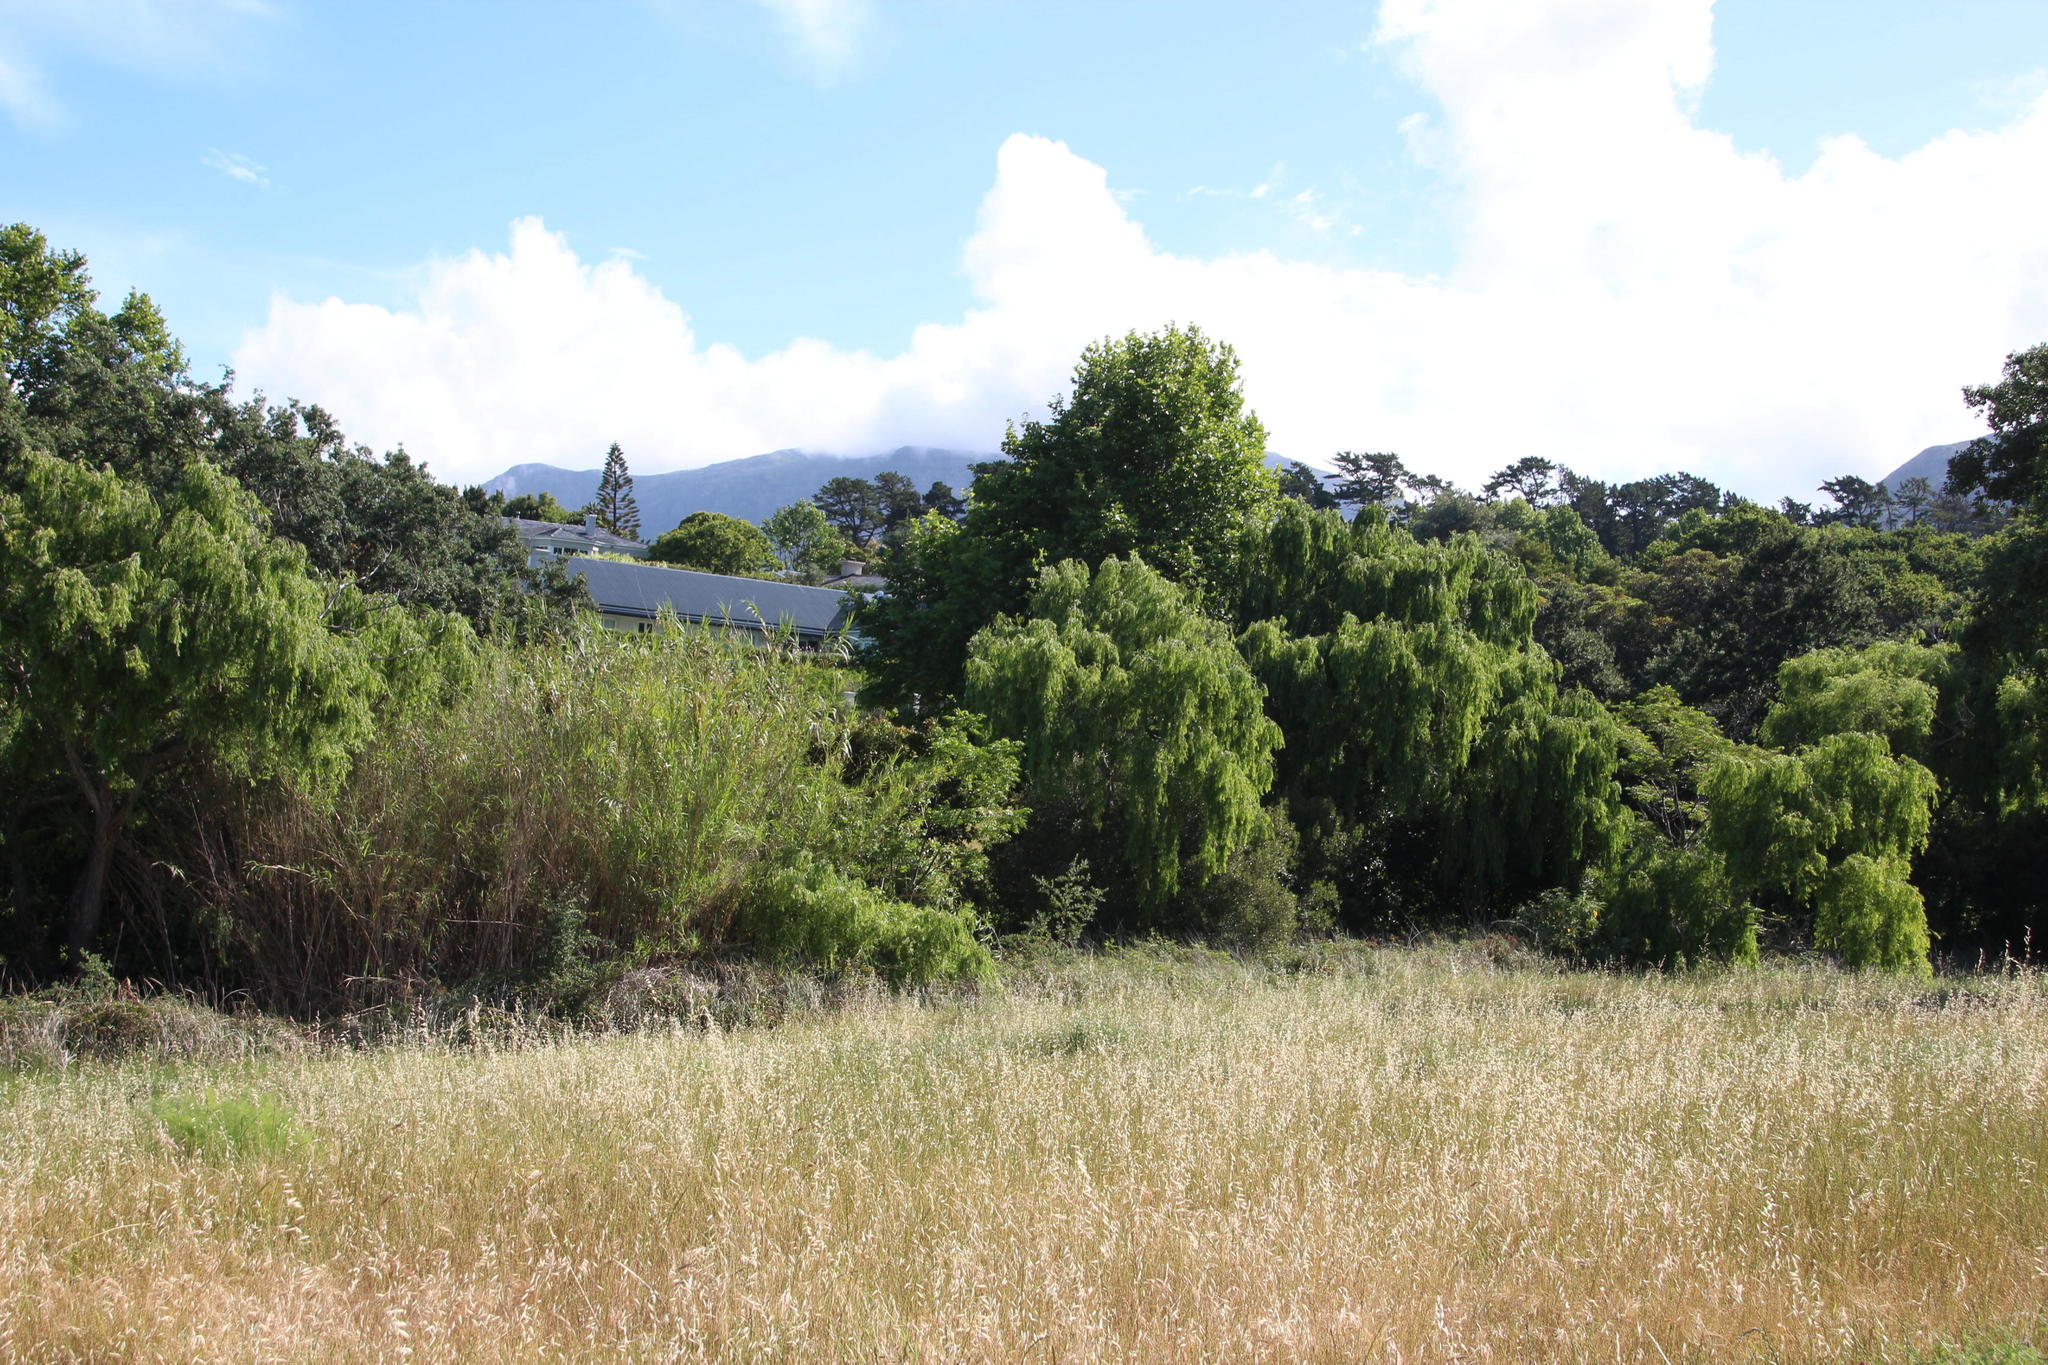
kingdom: Plantae
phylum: Tracheophyta
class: Magnoliopsida
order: Malpighiales
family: Salicaceae
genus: Salix
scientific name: Salix babylonica
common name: Weeping willow
